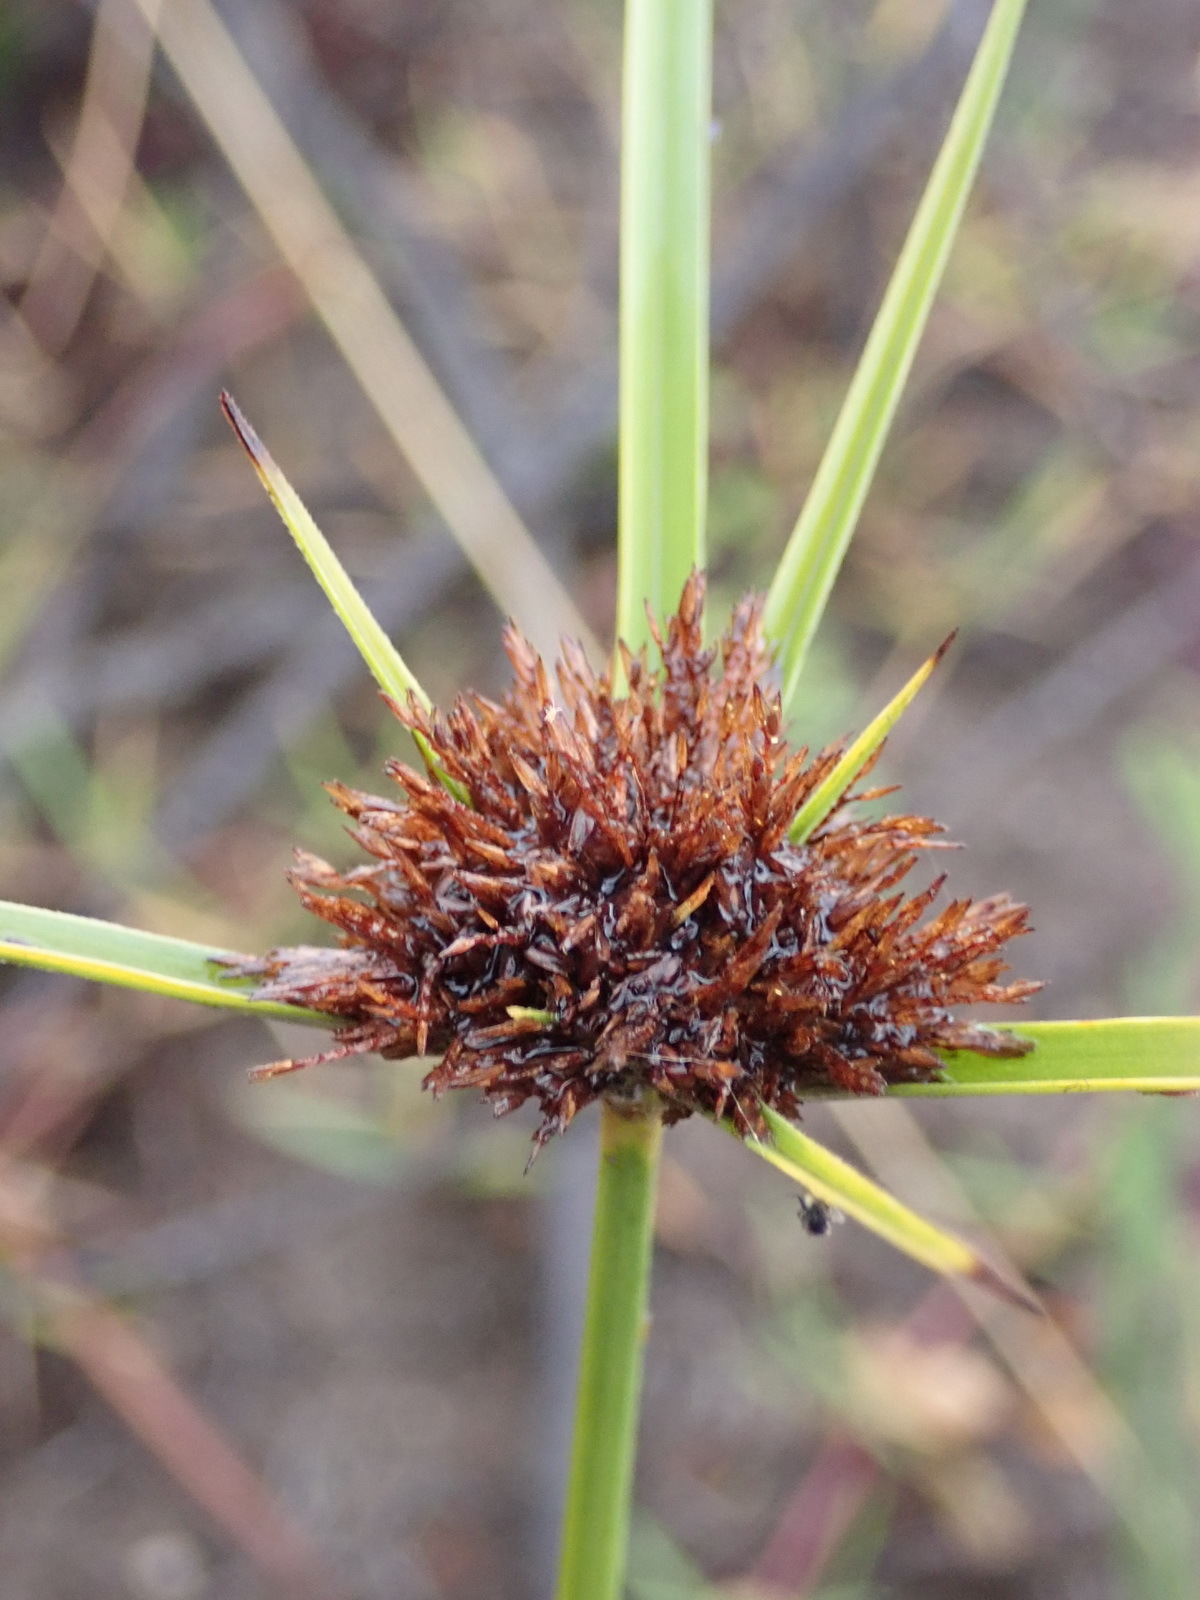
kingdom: Plantae
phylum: Tracheophyta
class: Liliopsida
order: Poales
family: Cyperaceae
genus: Cyperus
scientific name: Cyperus polystachyos
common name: Bunchy flat sedge
